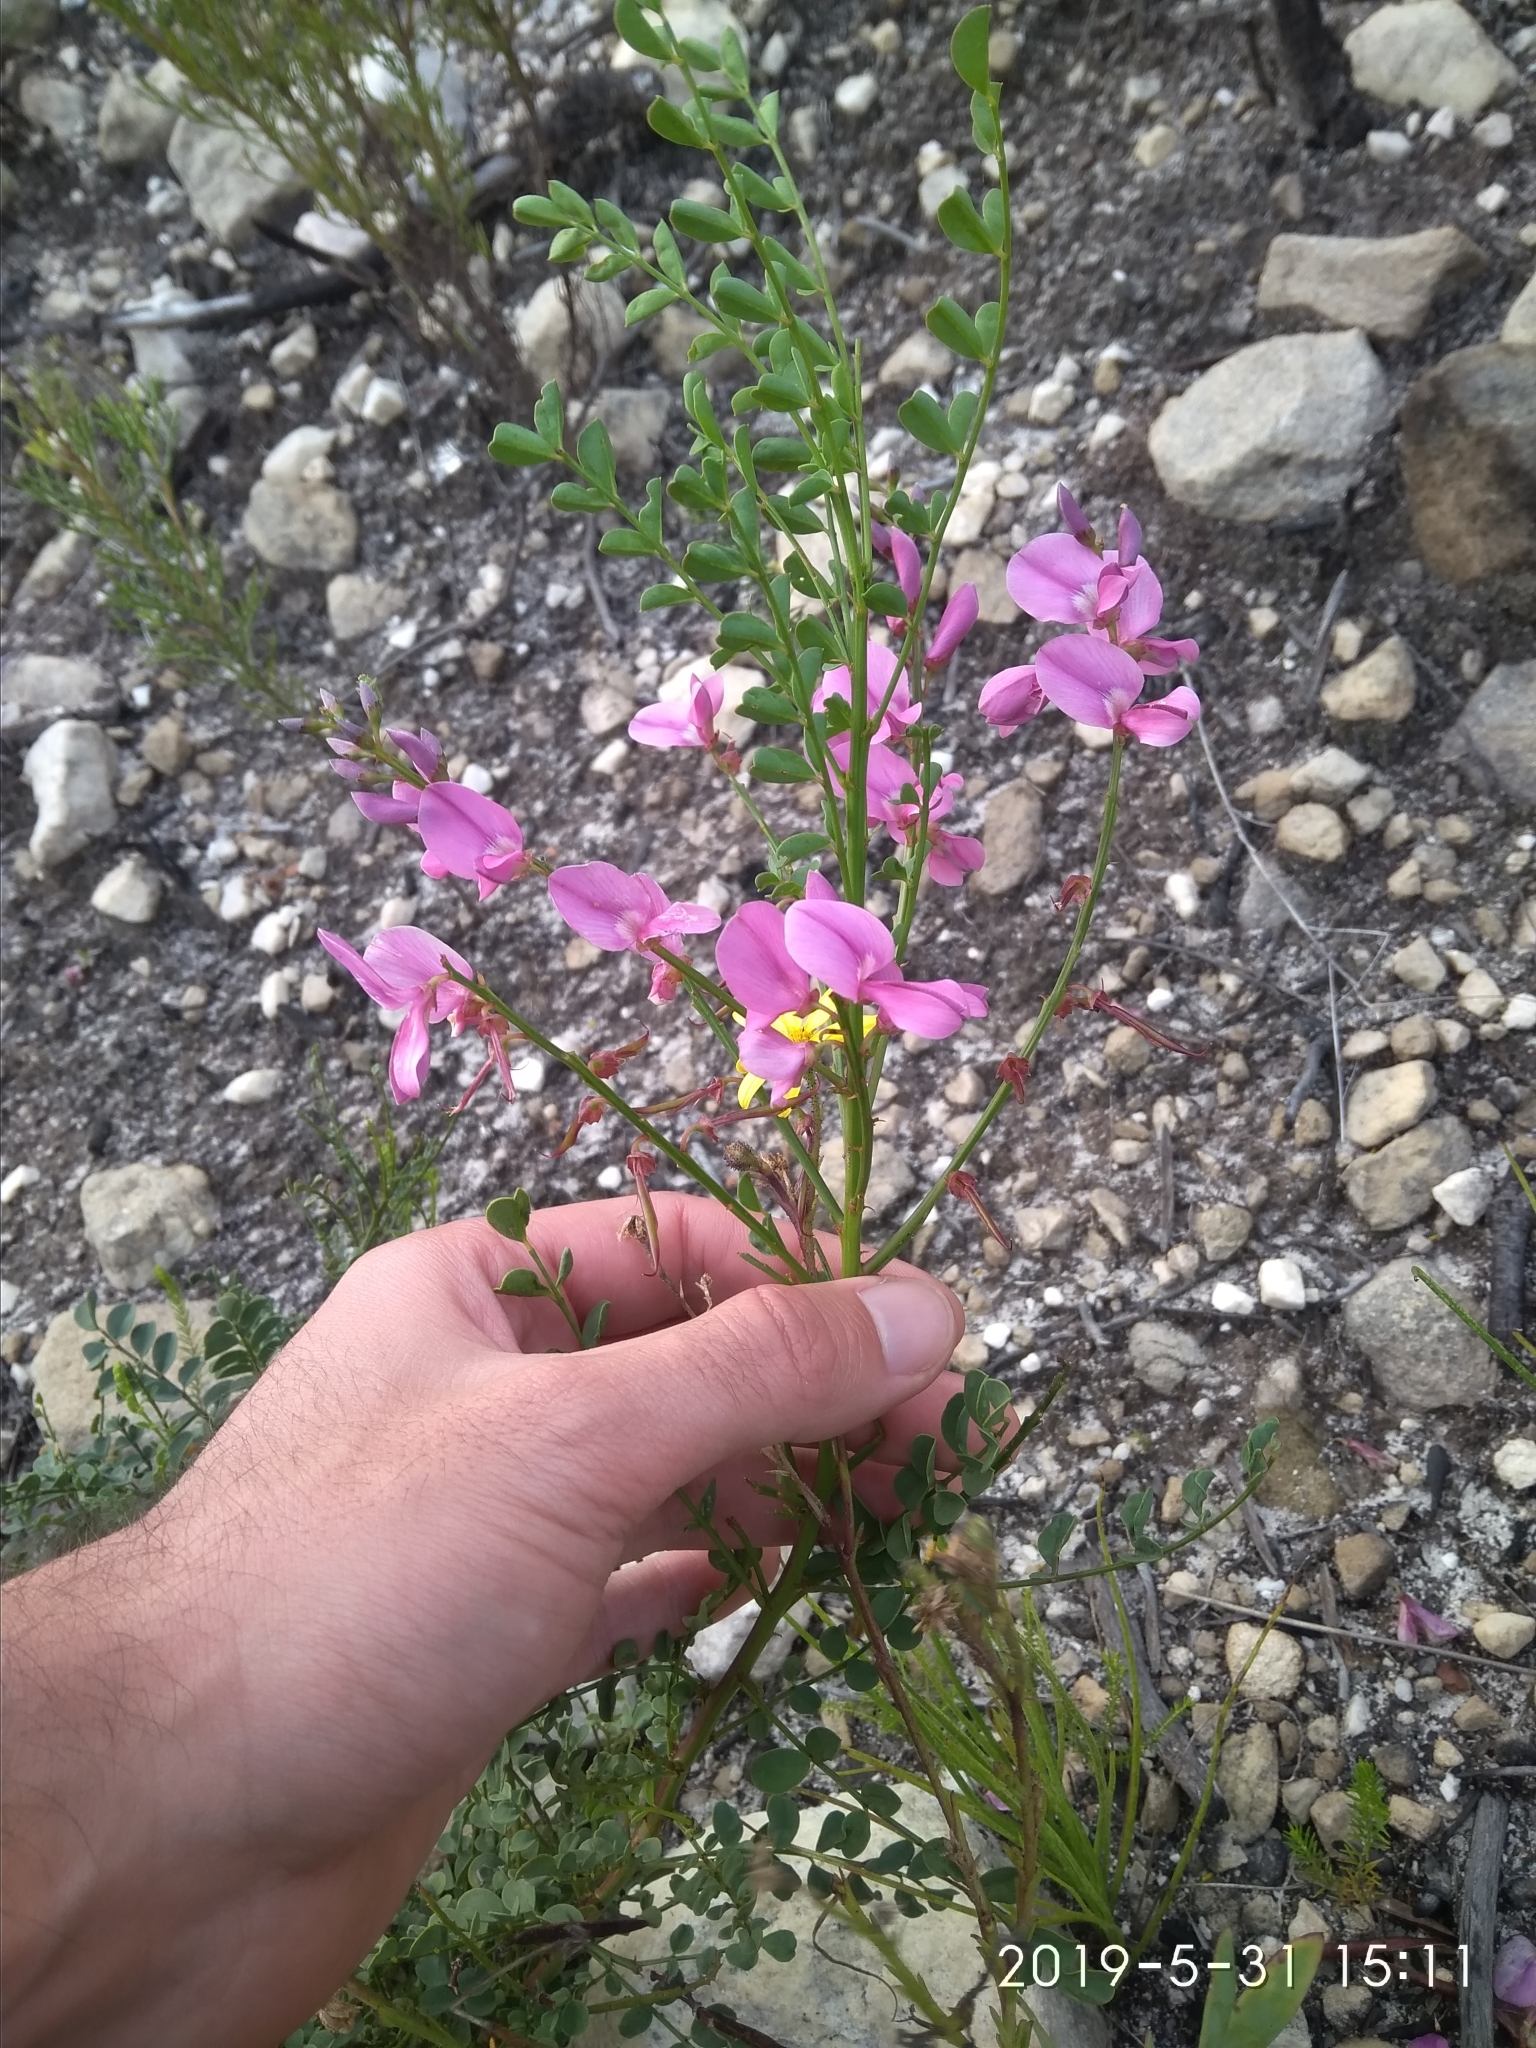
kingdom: Plantae
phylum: Tracheophyta
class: Magnoliopsida
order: Fabales
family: Fabaceae
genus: Indigofera
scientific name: Indigofera langebergensis
